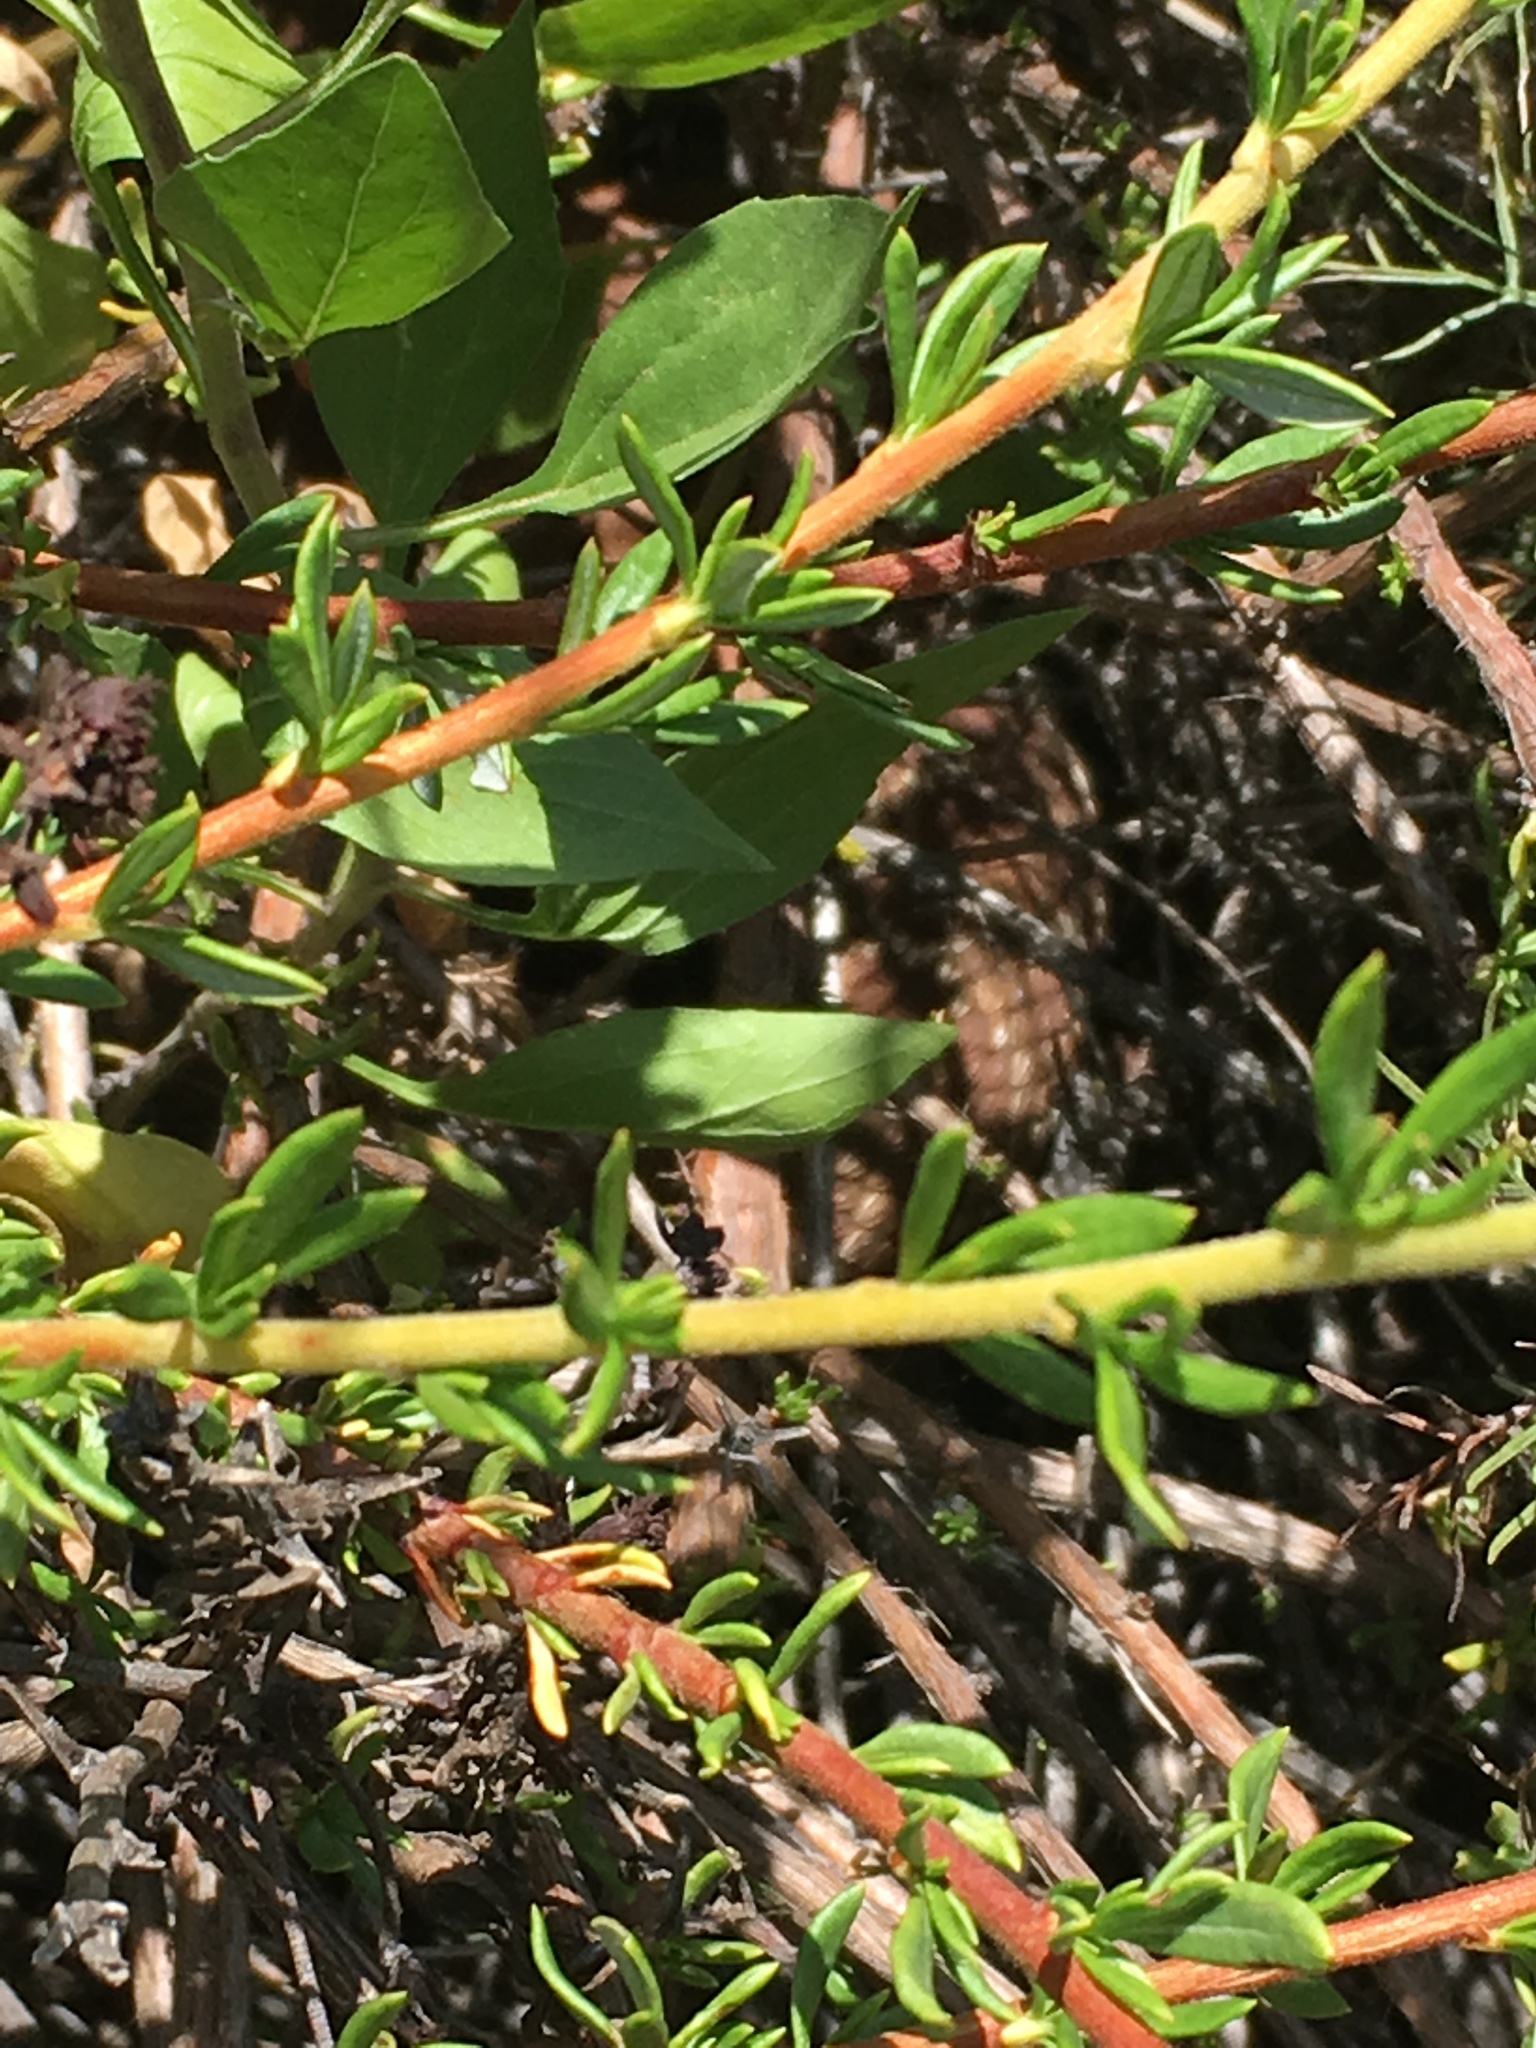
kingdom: Animalia
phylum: Chordata
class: Squamata
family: Viperidae
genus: Crotalus
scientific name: Crotalus ruber
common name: Red diamond rattlesnake
